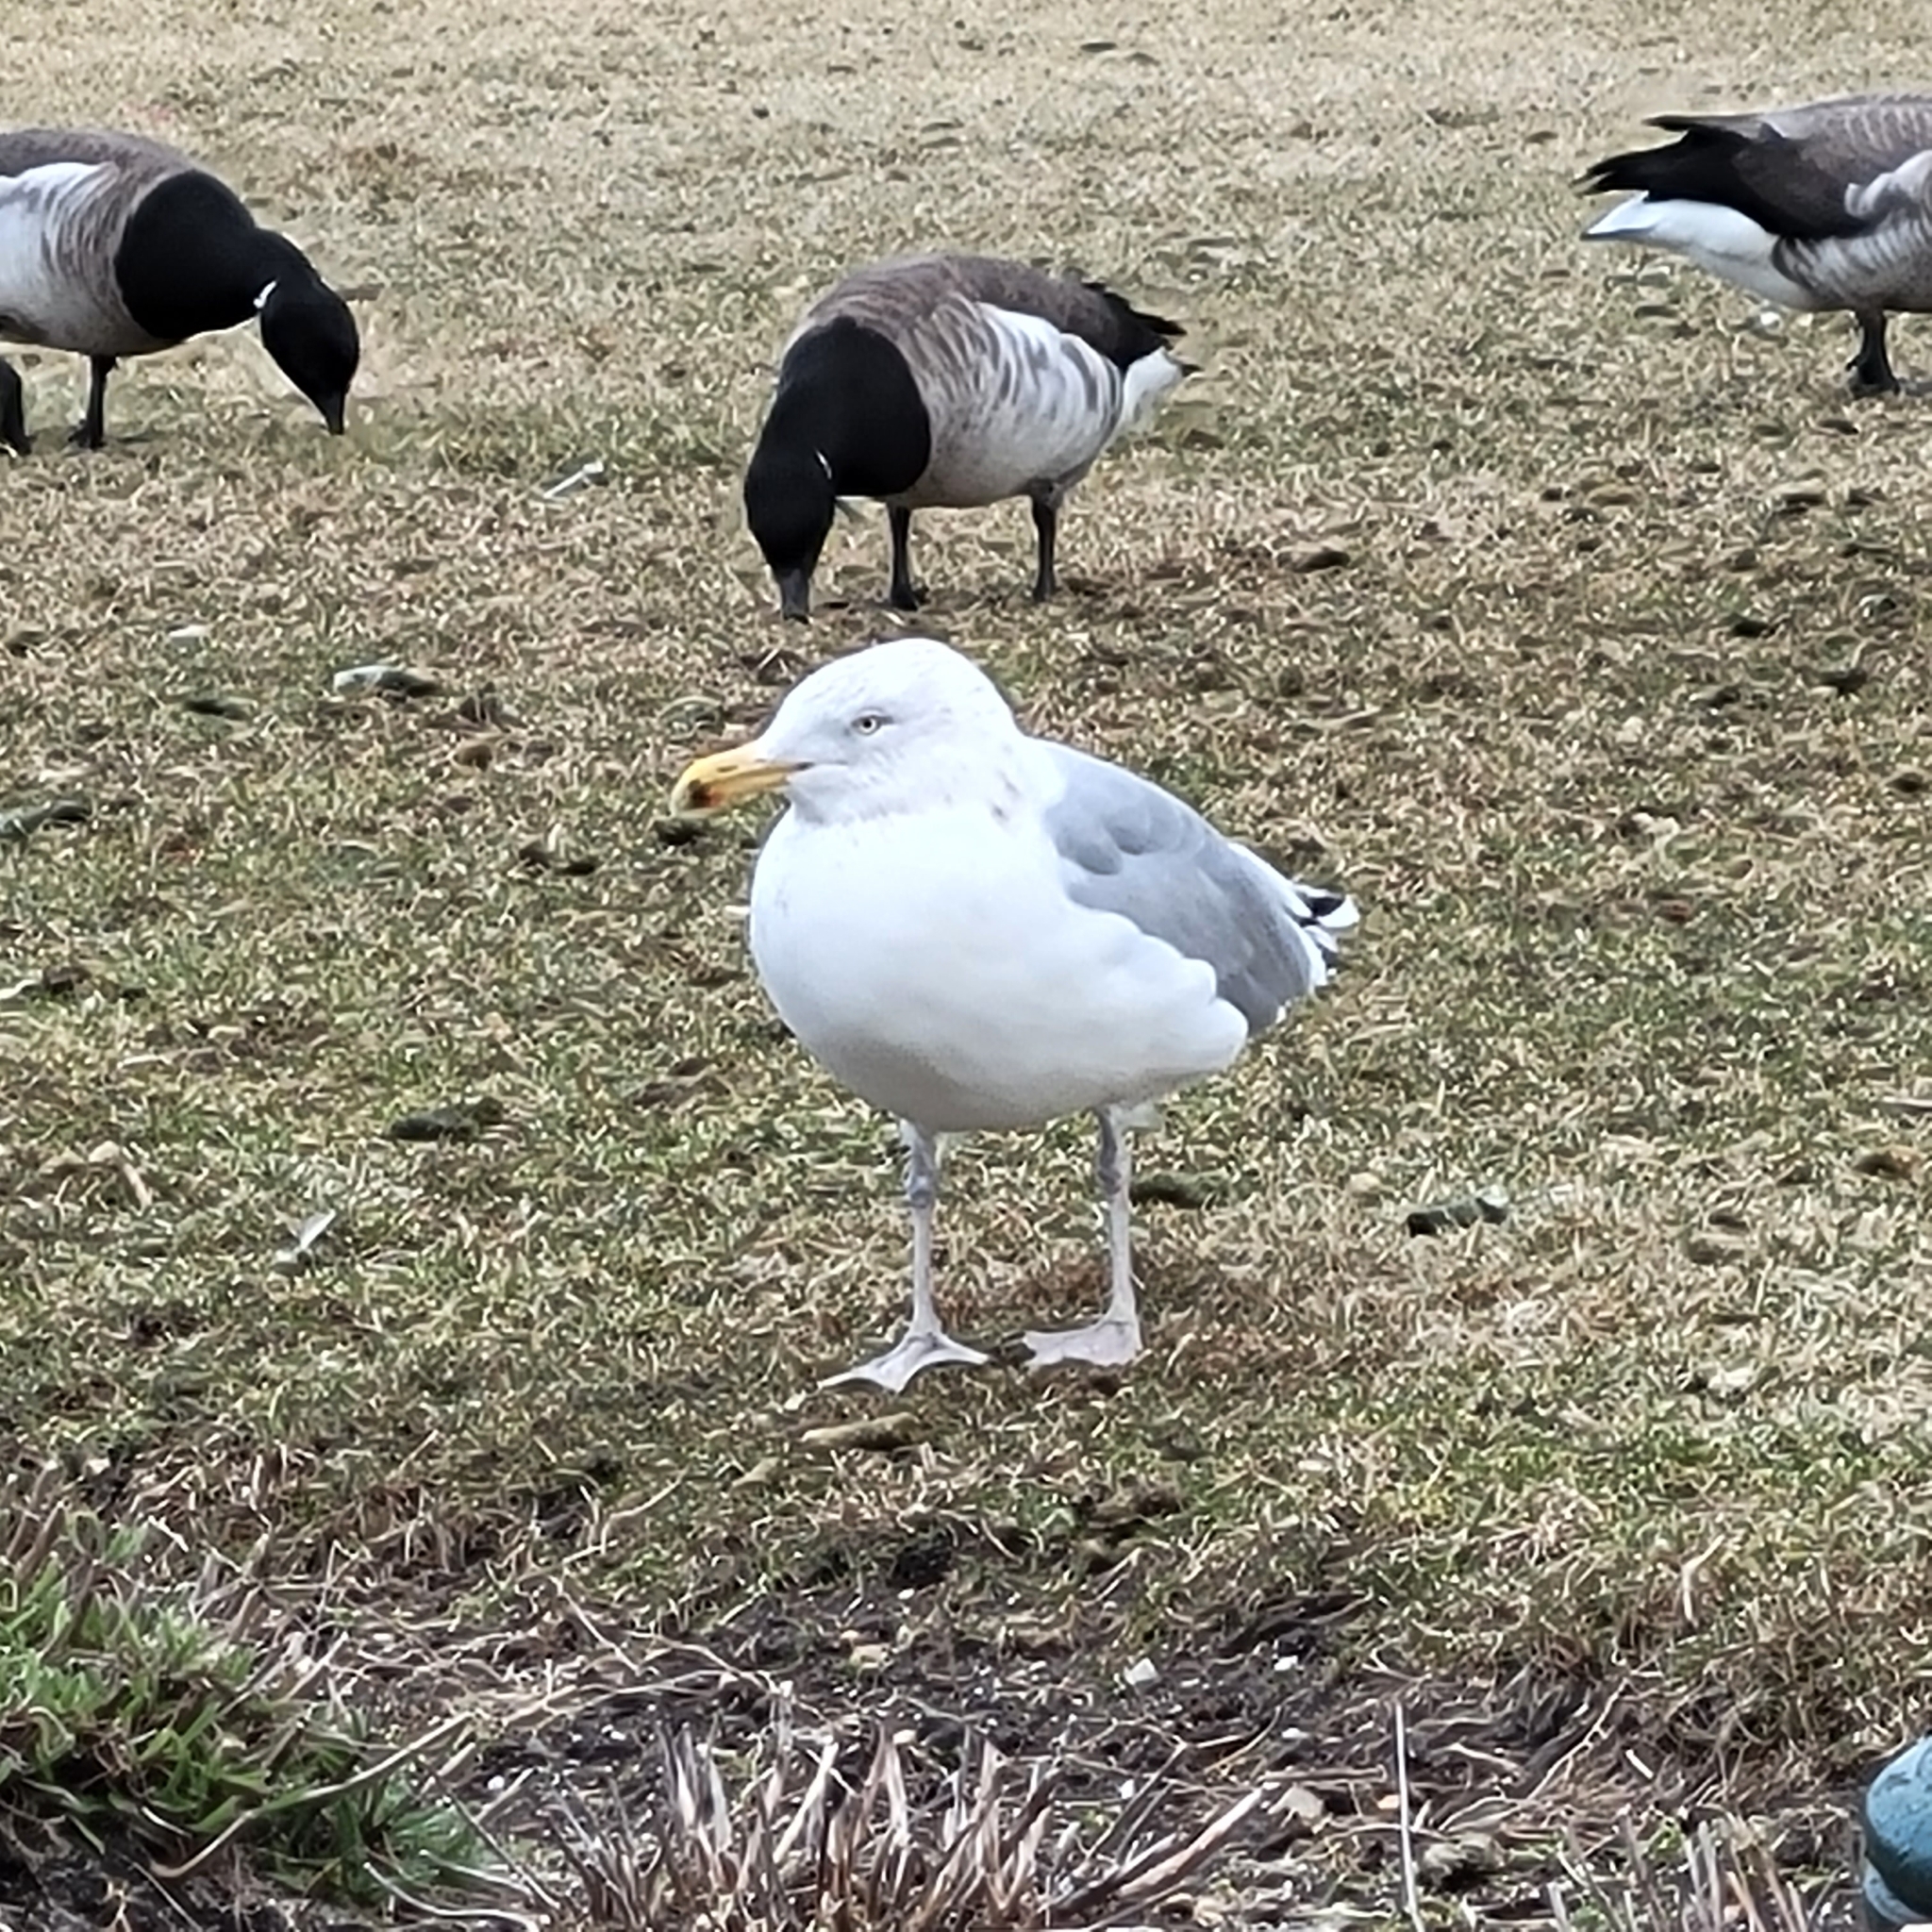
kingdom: Animalia
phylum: Chordata
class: Aves
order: Charadriiformes
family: Laridae
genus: Larus
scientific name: Larus argentatus
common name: Herring gull
